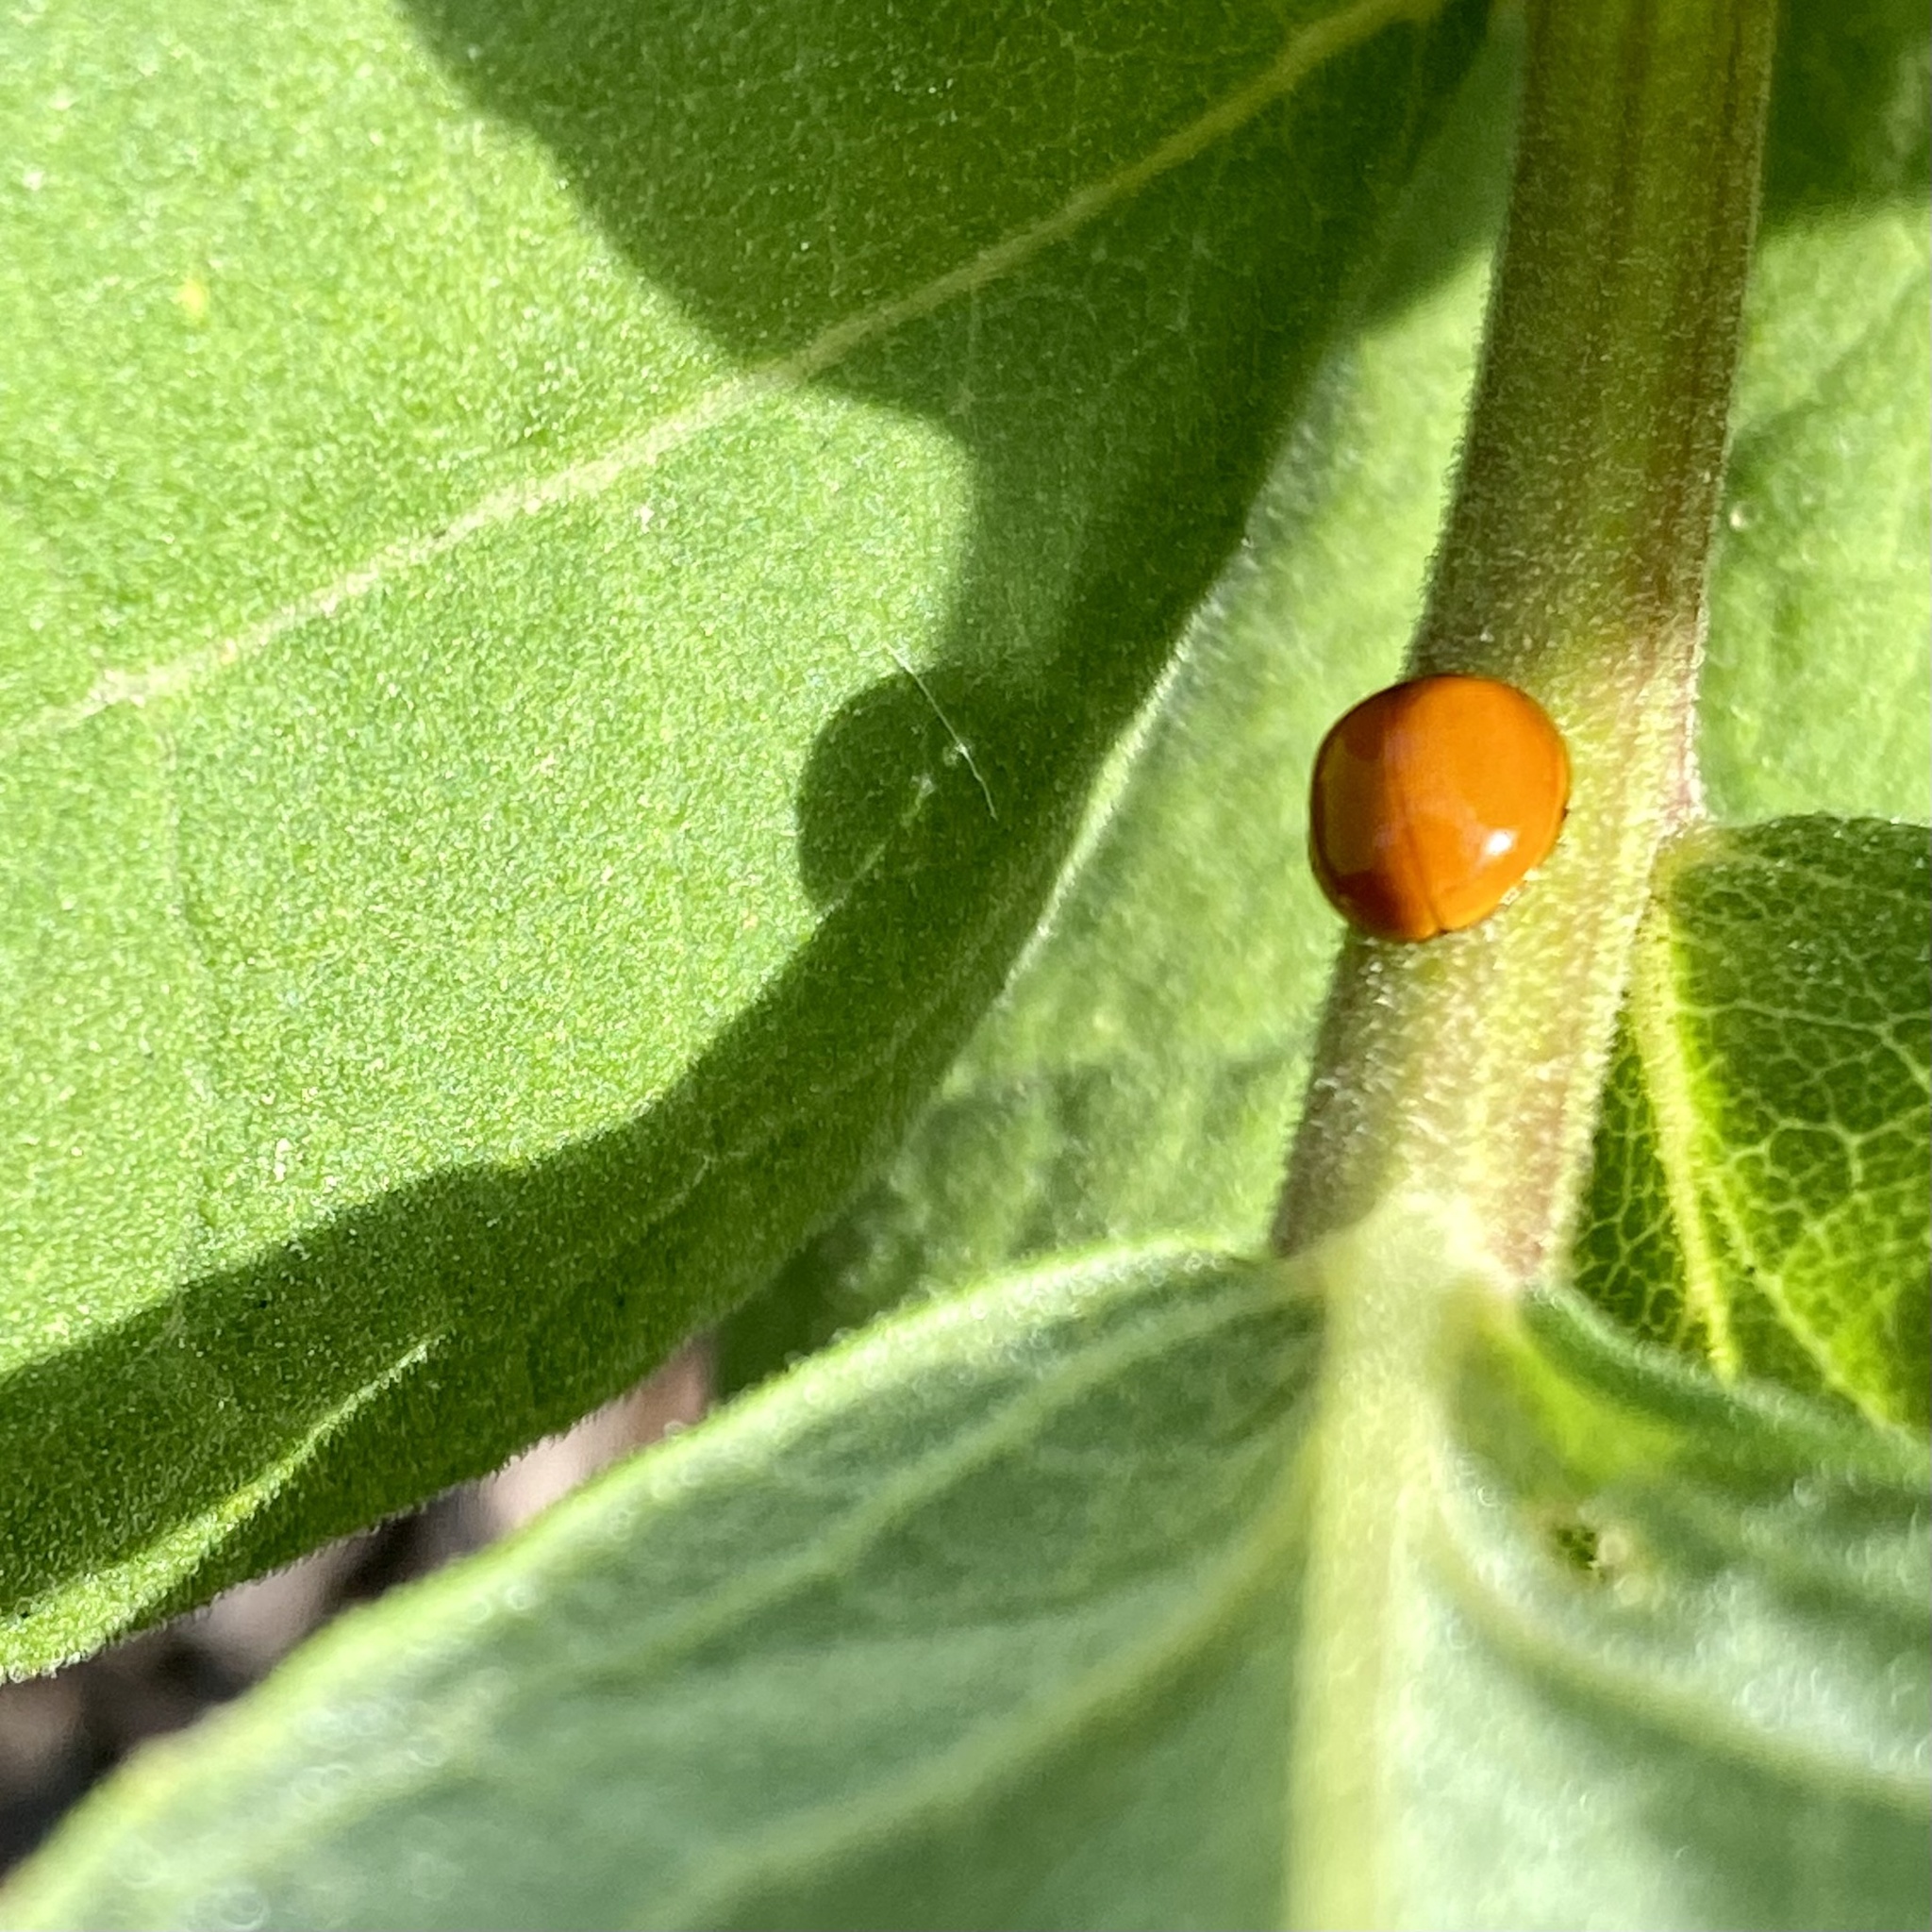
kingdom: Animalia
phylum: Arthropoda
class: Insecta
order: Coleoptera
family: Coccinellidae
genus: Cycloneda
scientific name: Cycloneda sanguinea
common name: Ladybird beetle
